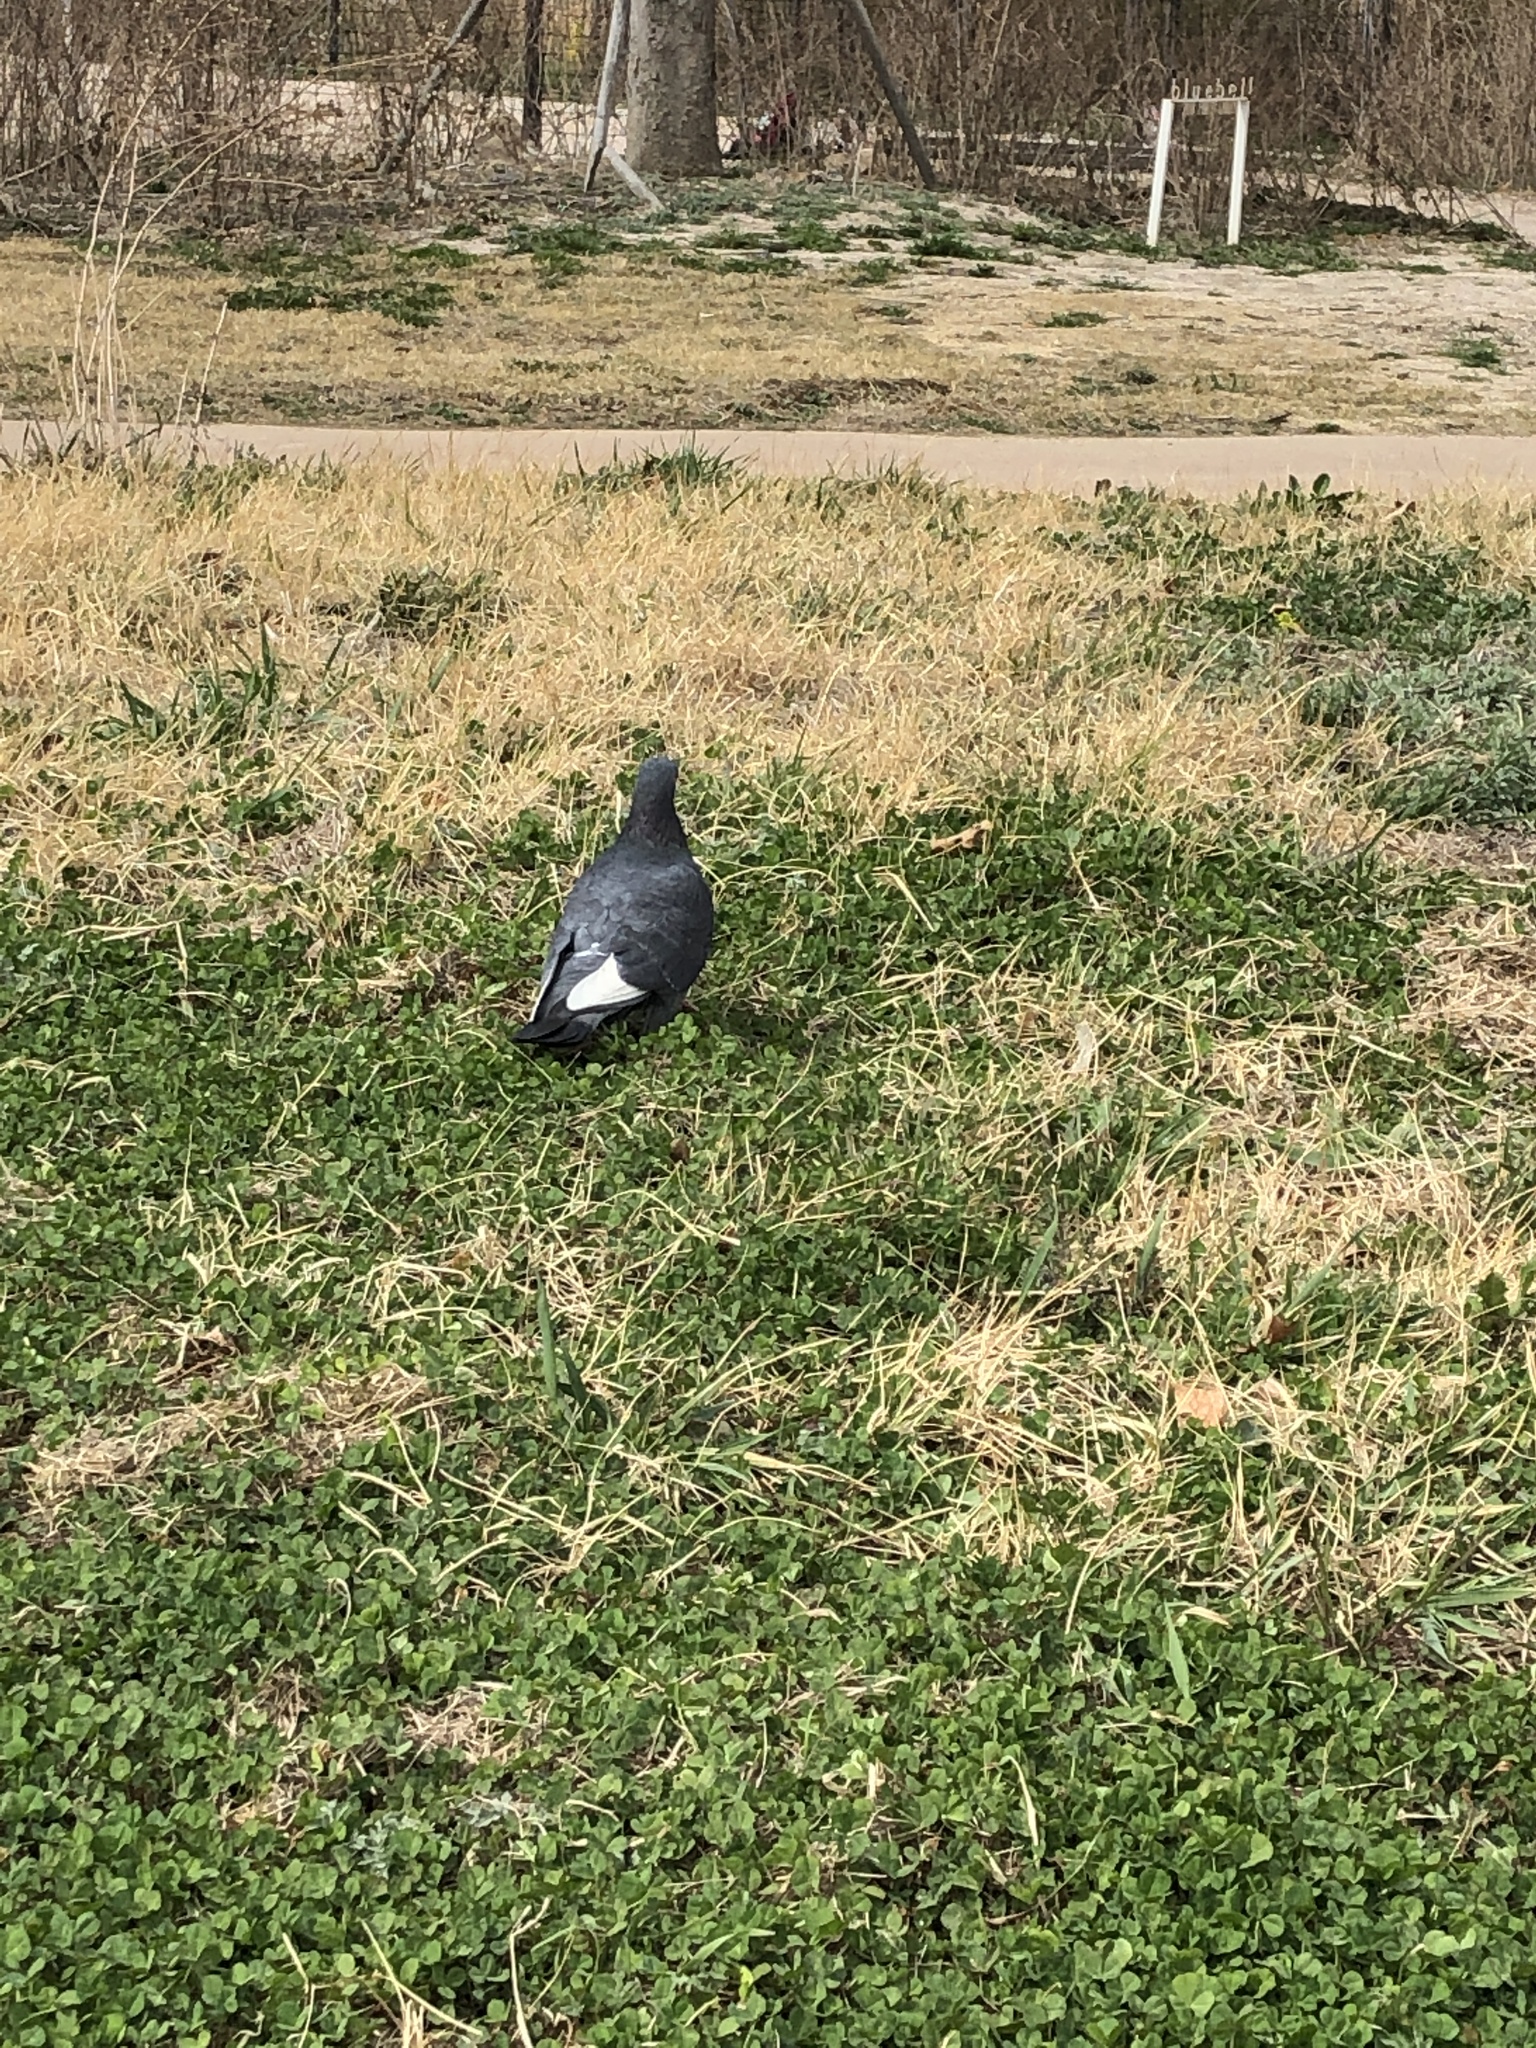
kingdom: Animalia
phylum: Chordata
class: Aves
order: Columbiformes
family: Columbidae
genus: Columba
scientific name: Columba livia
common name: Rock pigeon
